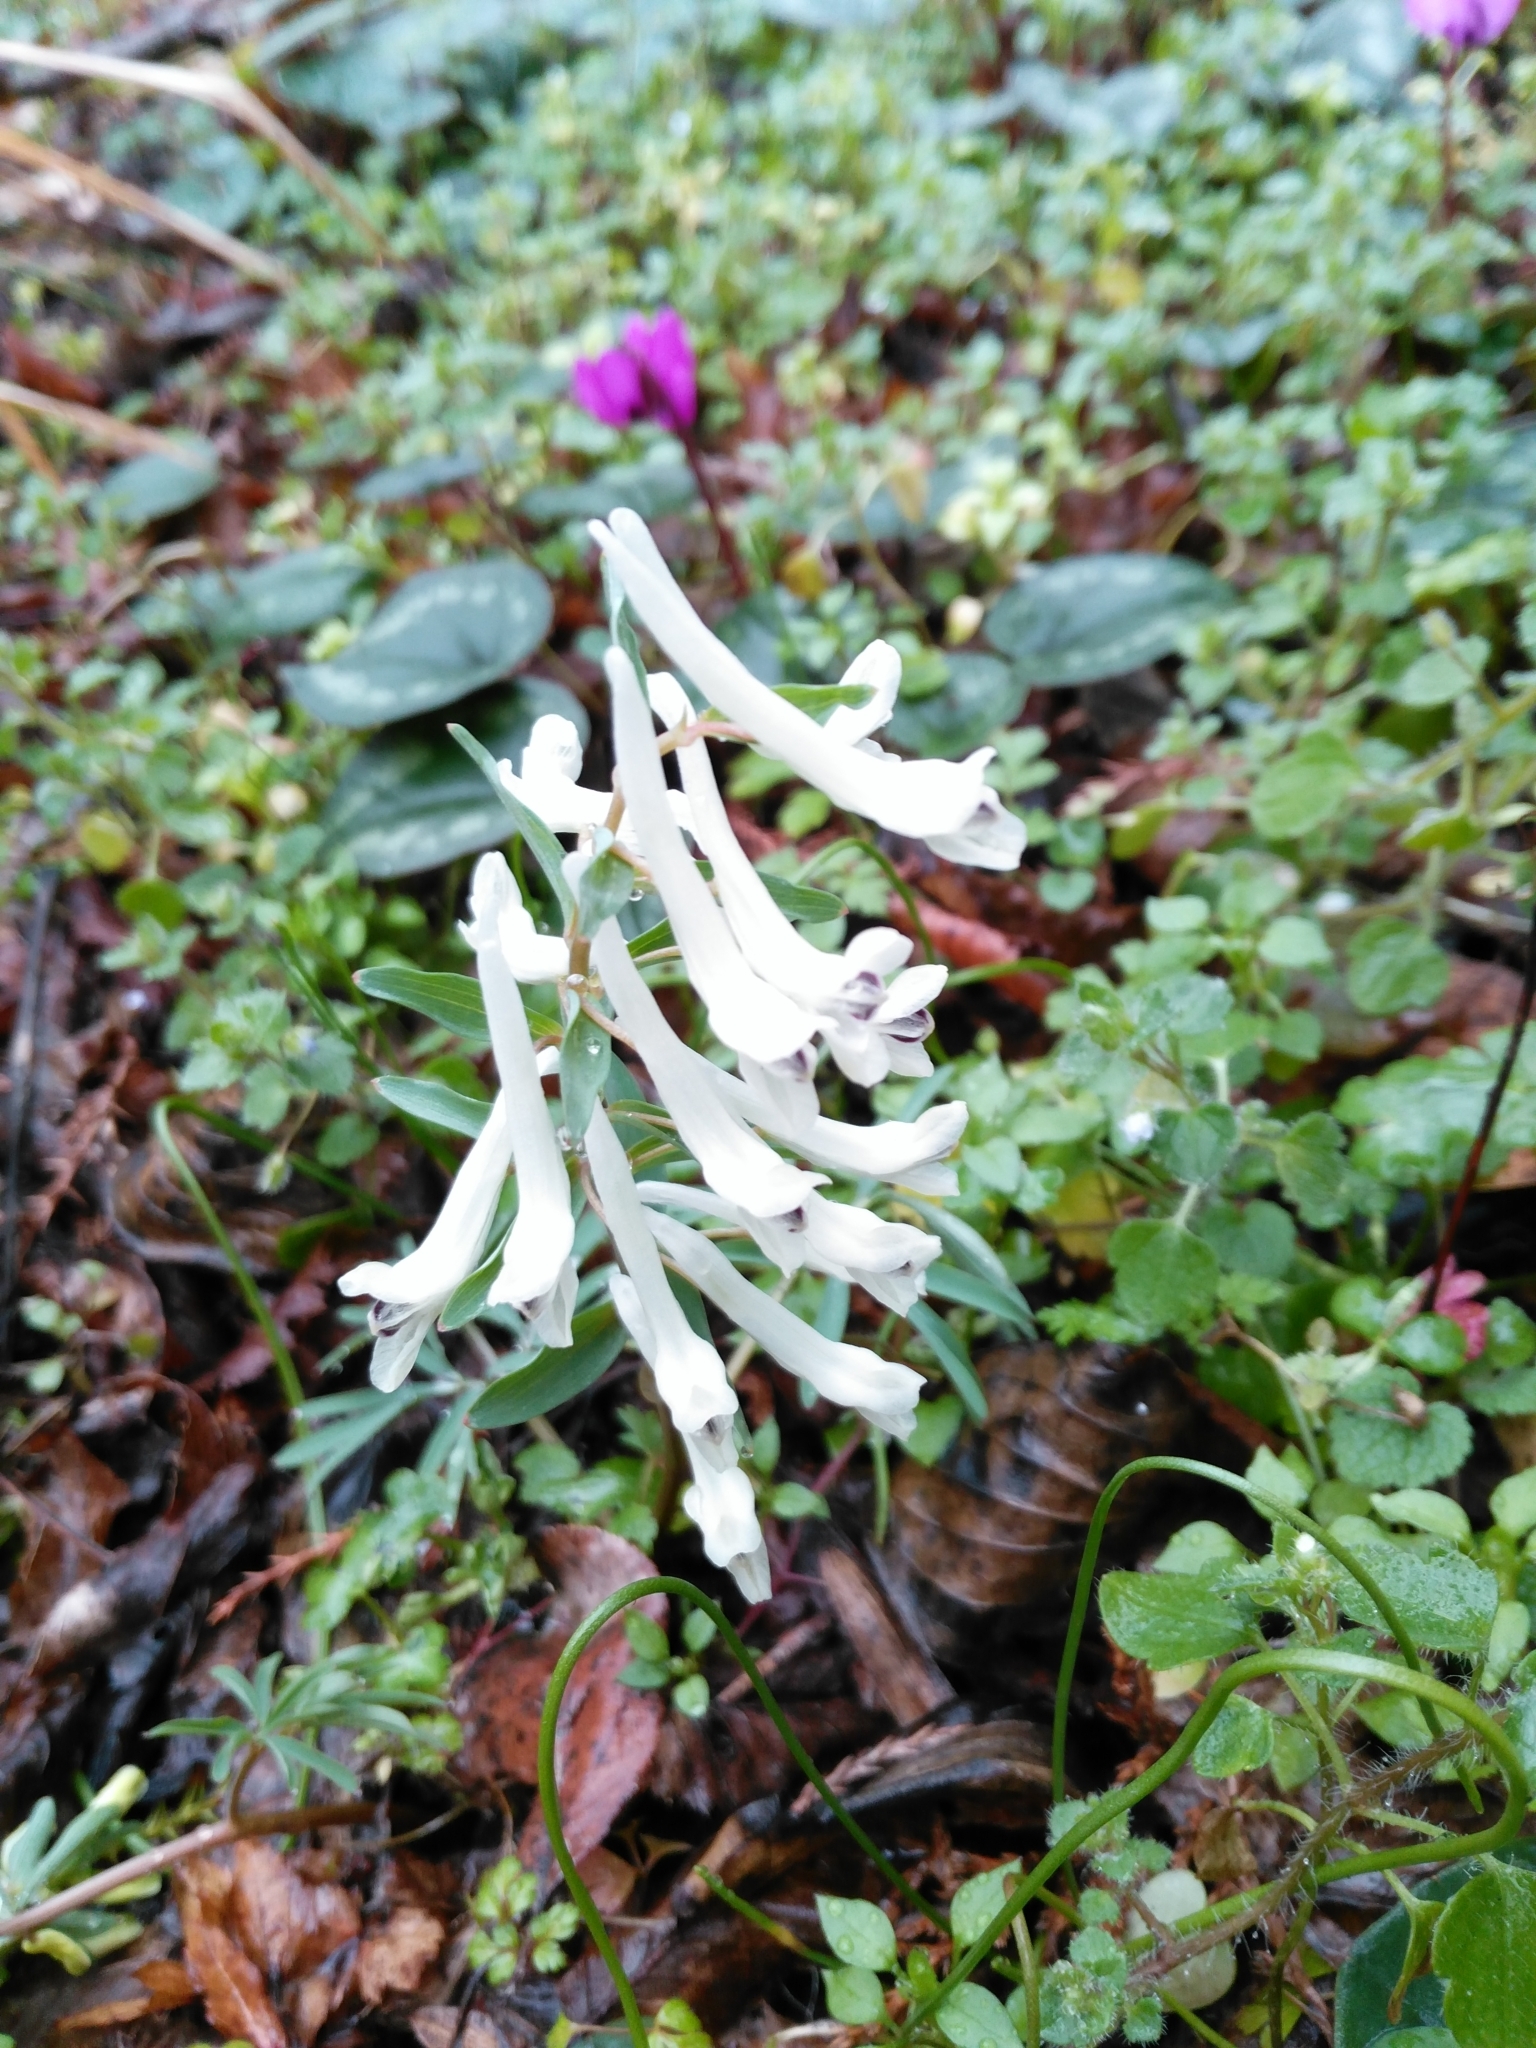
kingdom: Plantae
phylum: Tracheophyta
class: Magnoliopsida
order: Ranunculales
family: Papaveraceae
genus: Corydalis
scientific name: Corydalis angustifolia
